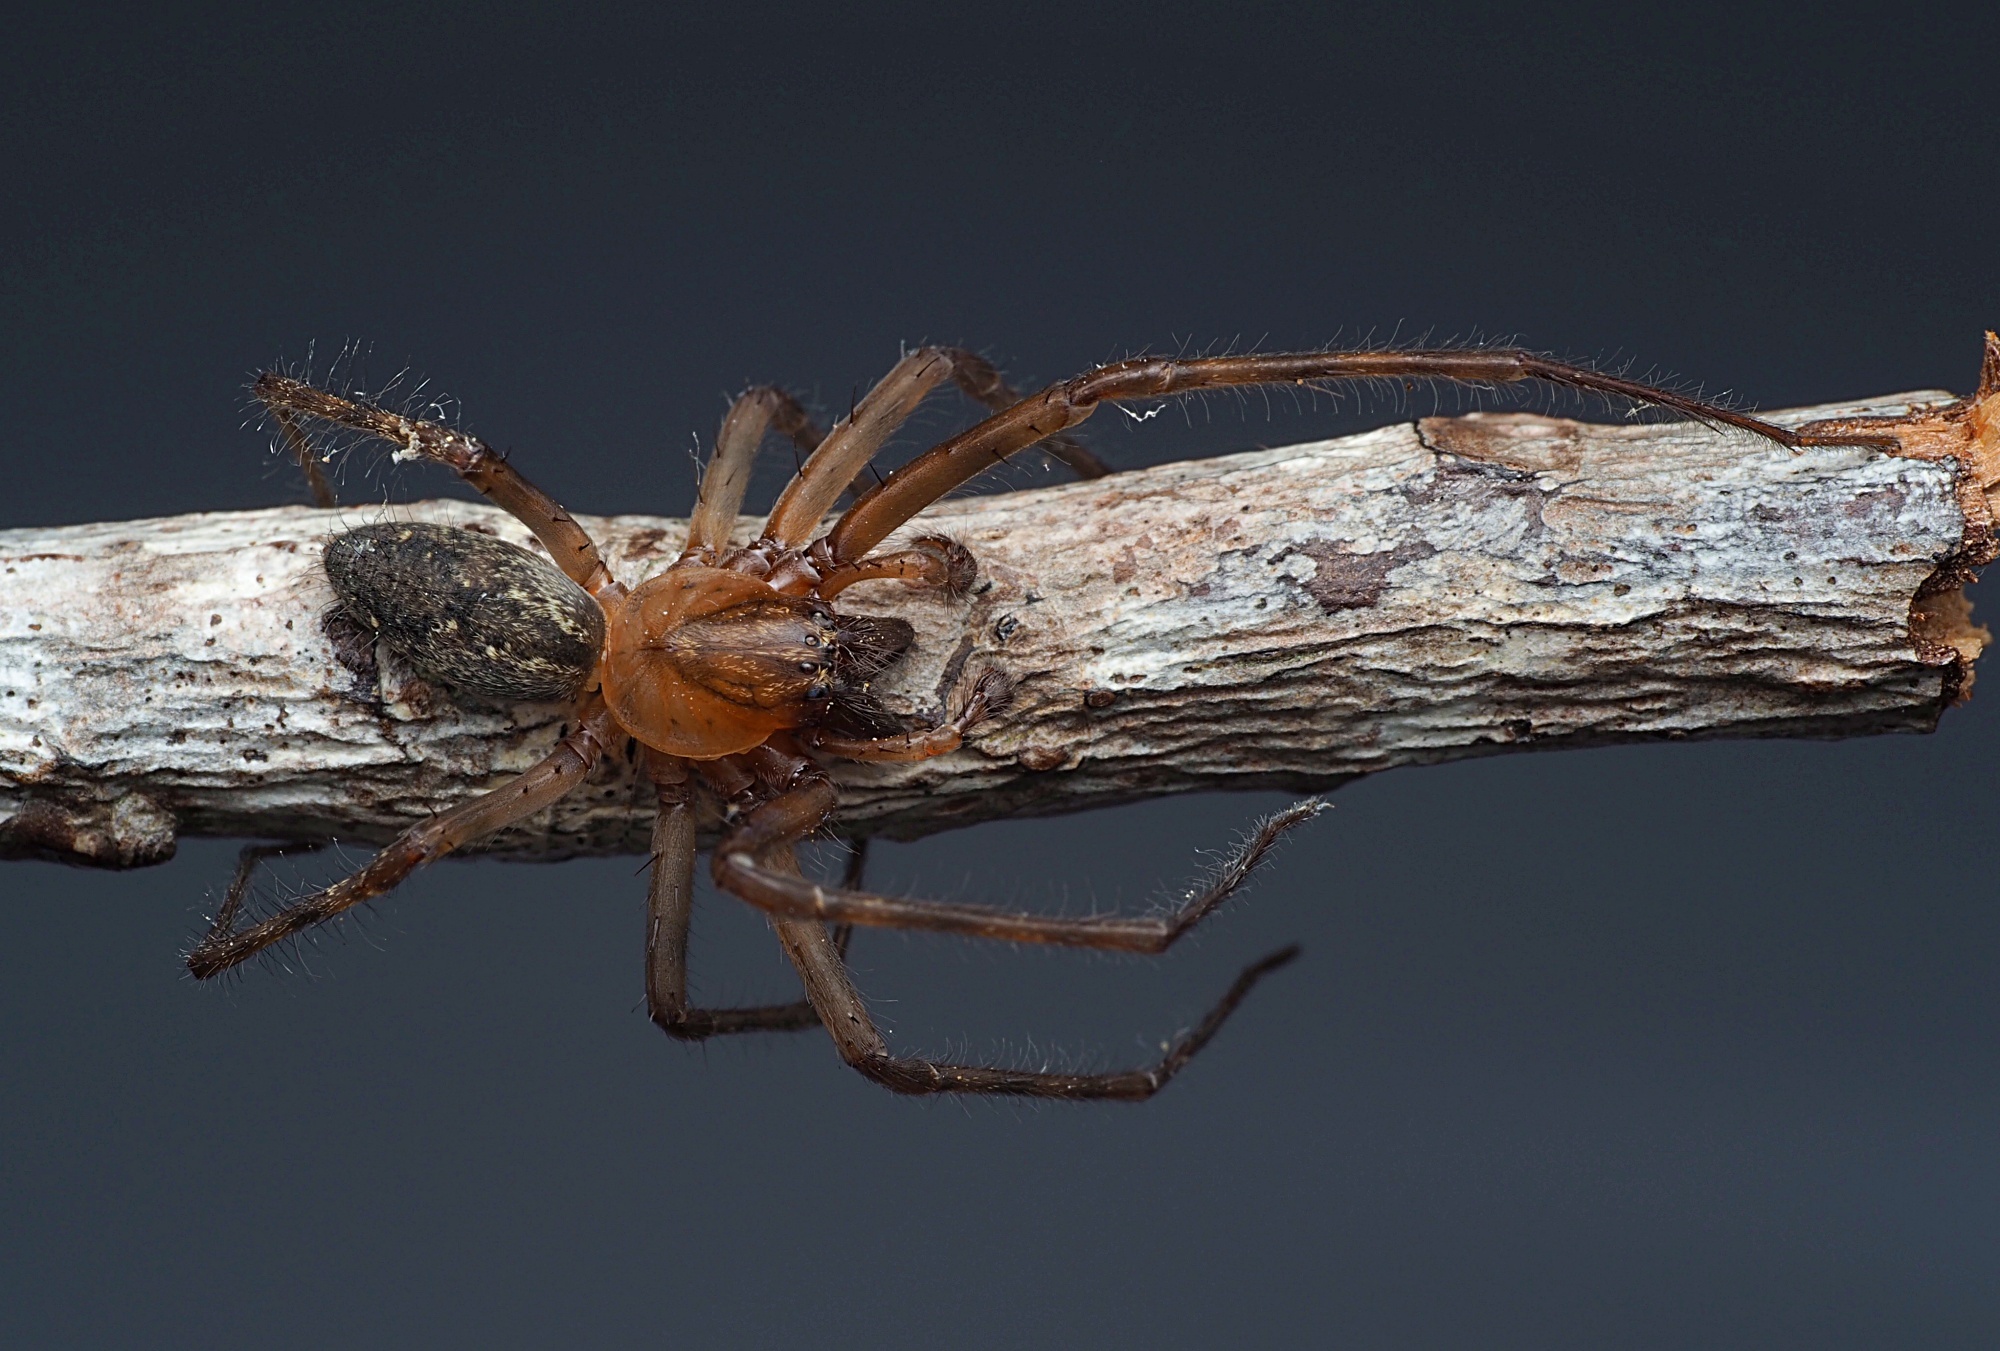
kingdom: Animalia
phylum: Arthropoda
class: Arachnida
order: Araneae
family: Desidae
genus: Nuisiana
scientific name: Nuisiana arboris
